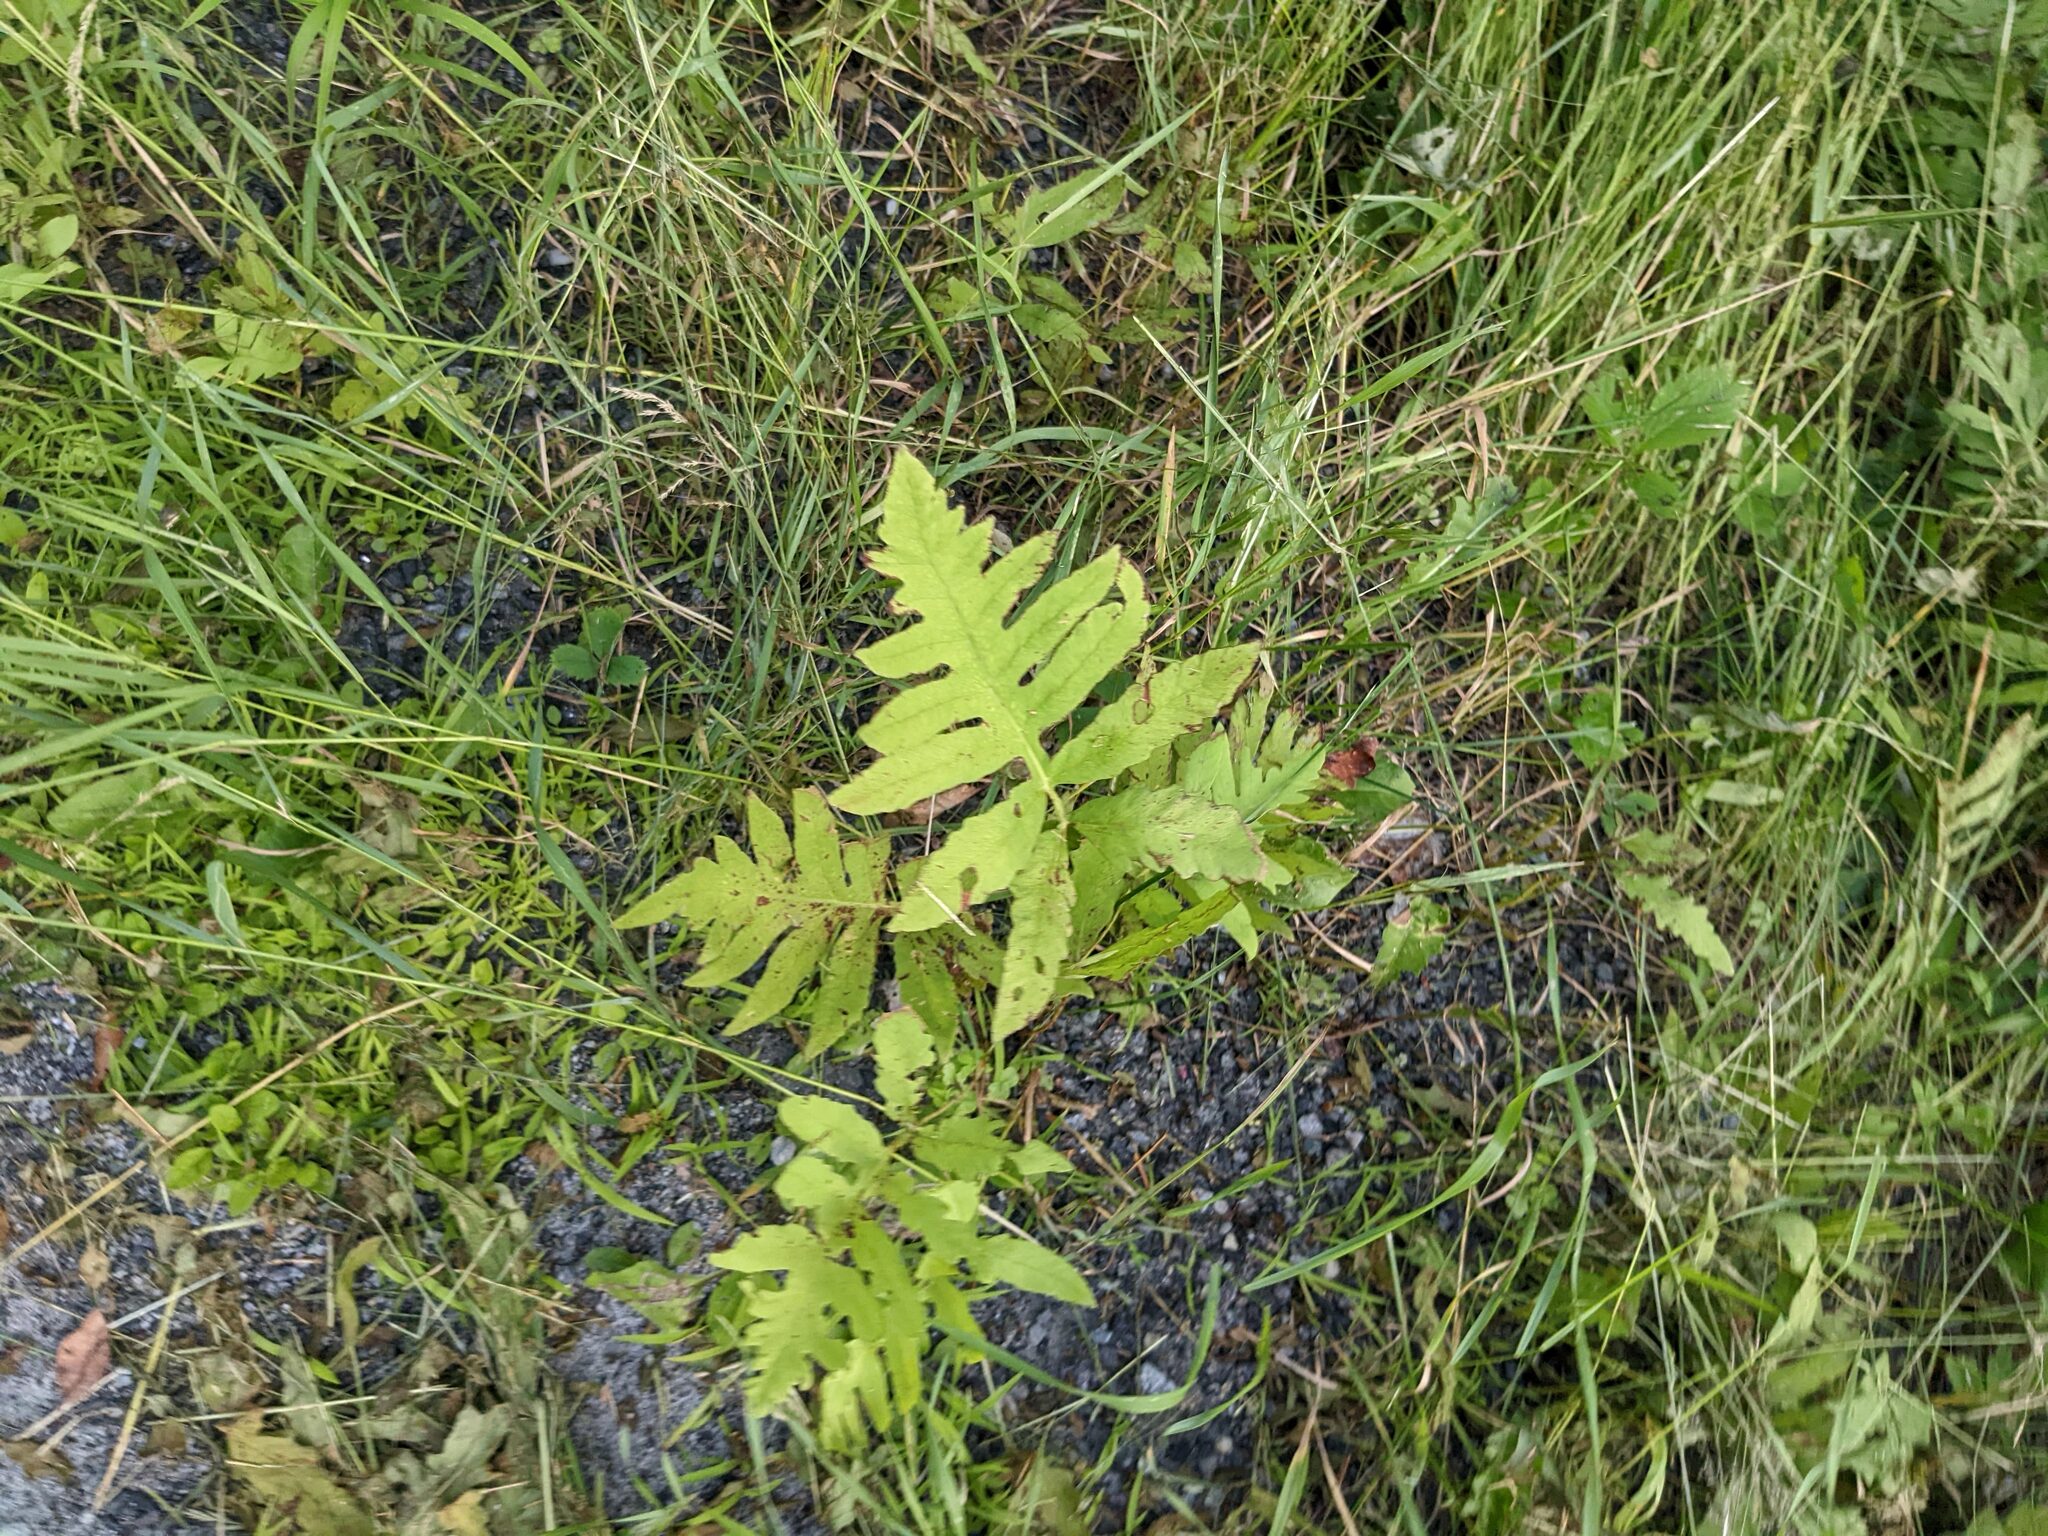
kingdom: Plantae
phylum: Tracheophyta
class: Polypodiopsida
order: Polypodiales
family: Onocleaceae
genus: Onoclea
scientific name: Onoclea sensibilis
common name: Sensitive fern
